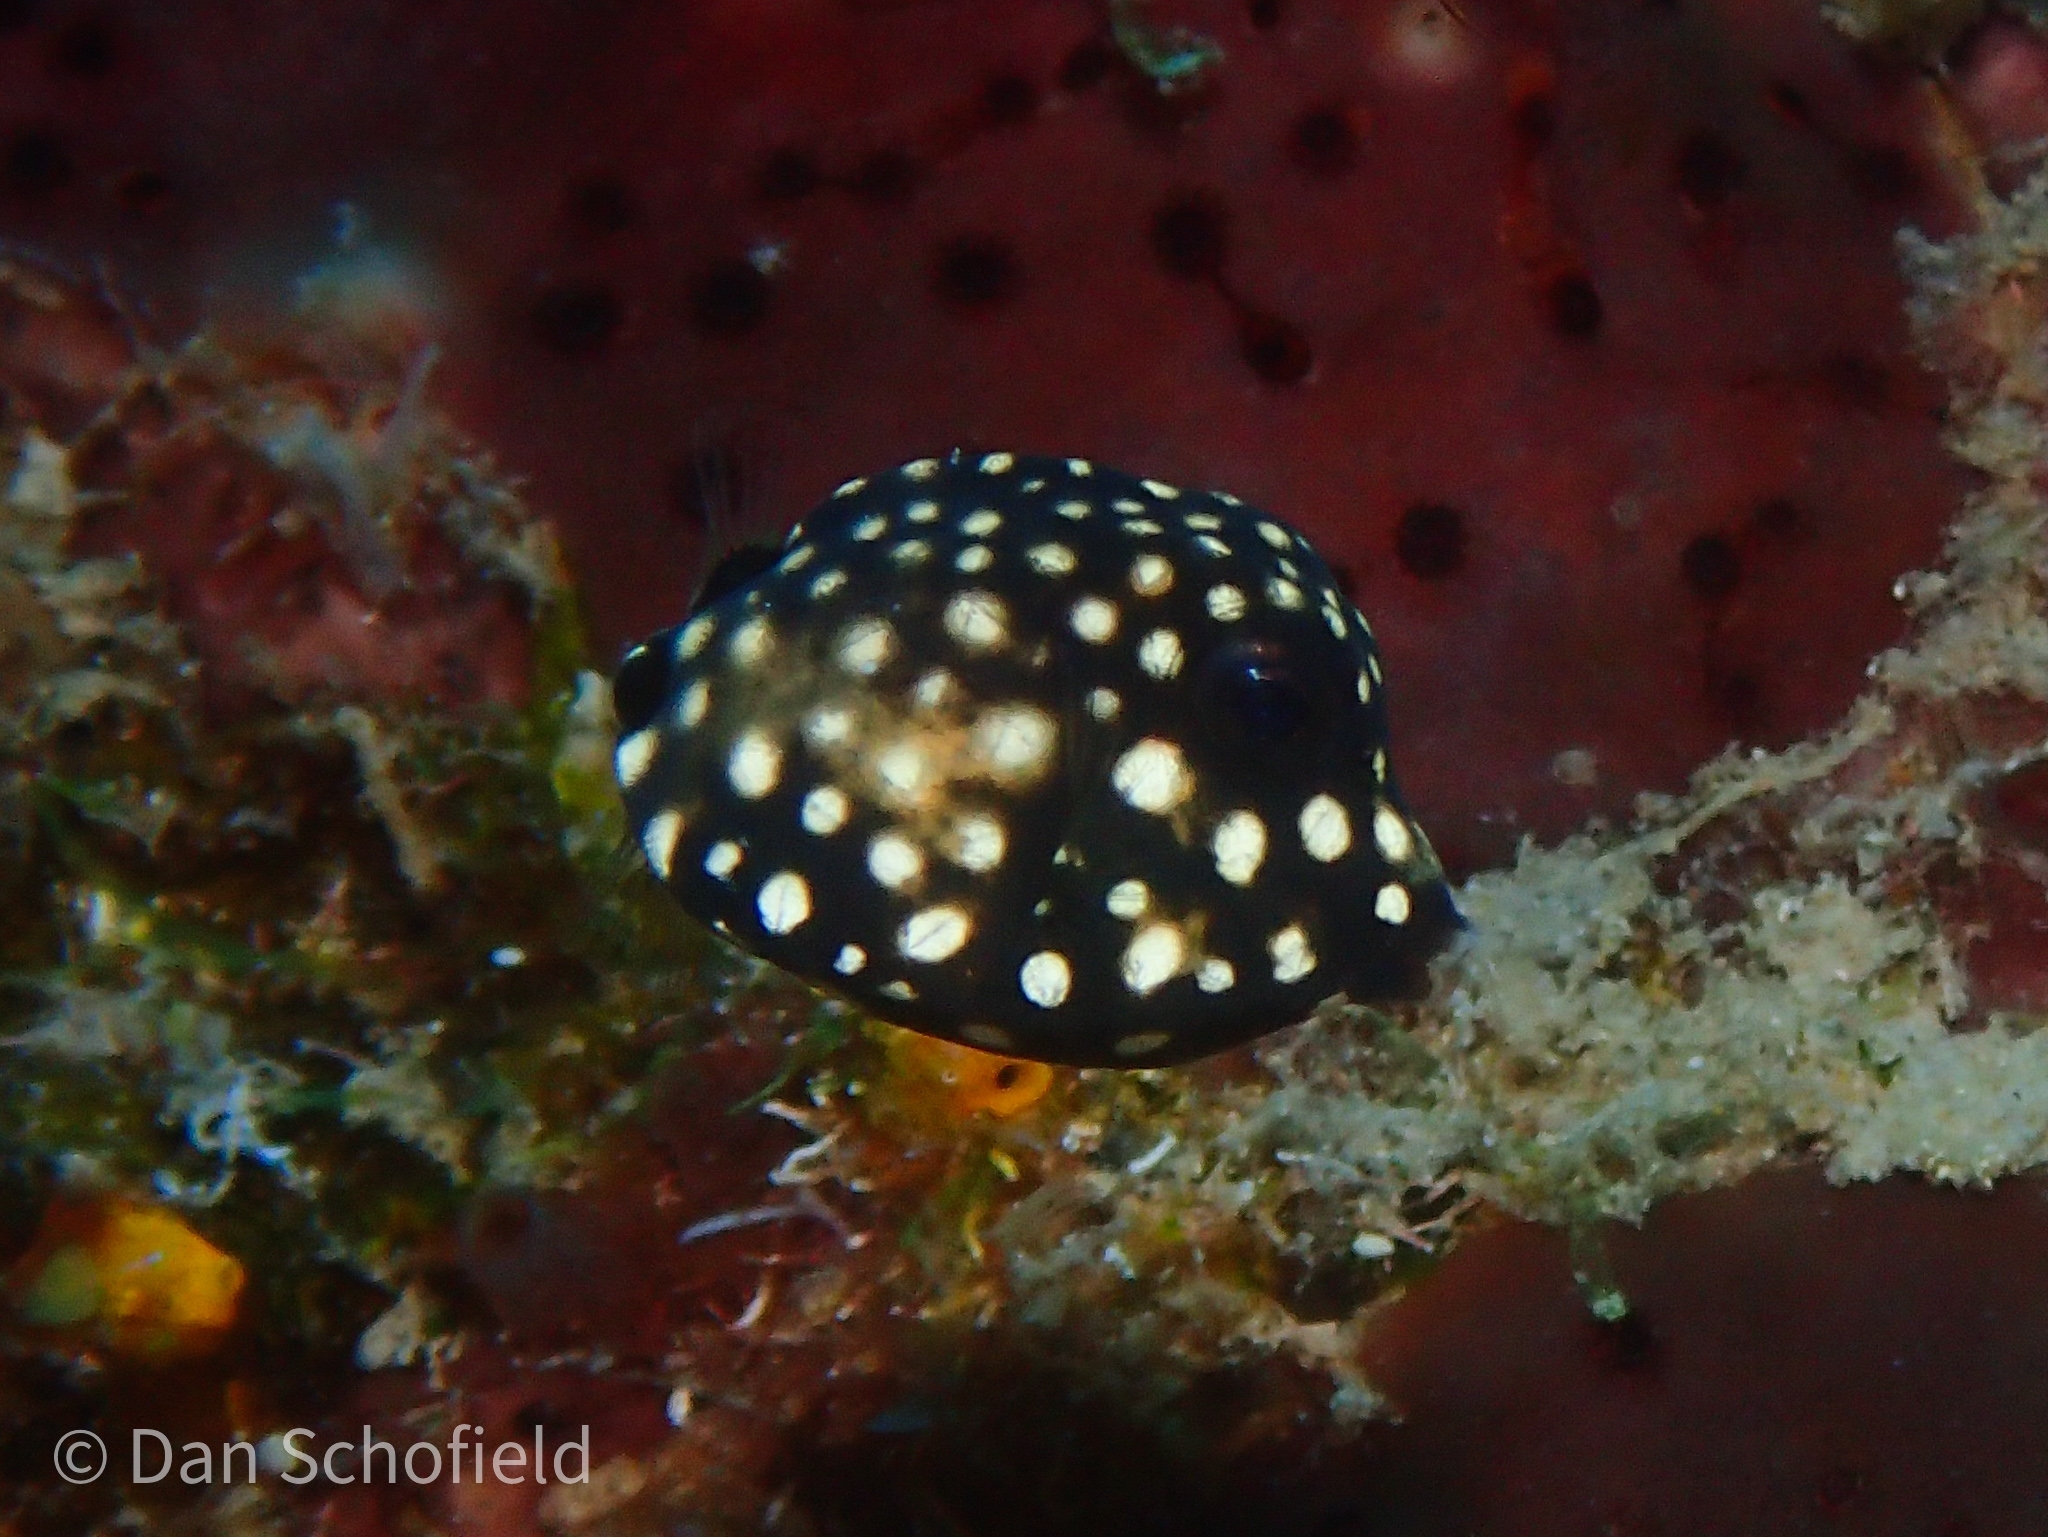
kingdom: Animalia
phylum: Chordata
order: Tetraodontiformes
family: Ostraciidae
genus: Lactophrys
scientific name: Lactophrys triqueter
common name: Smooth trunkfish
